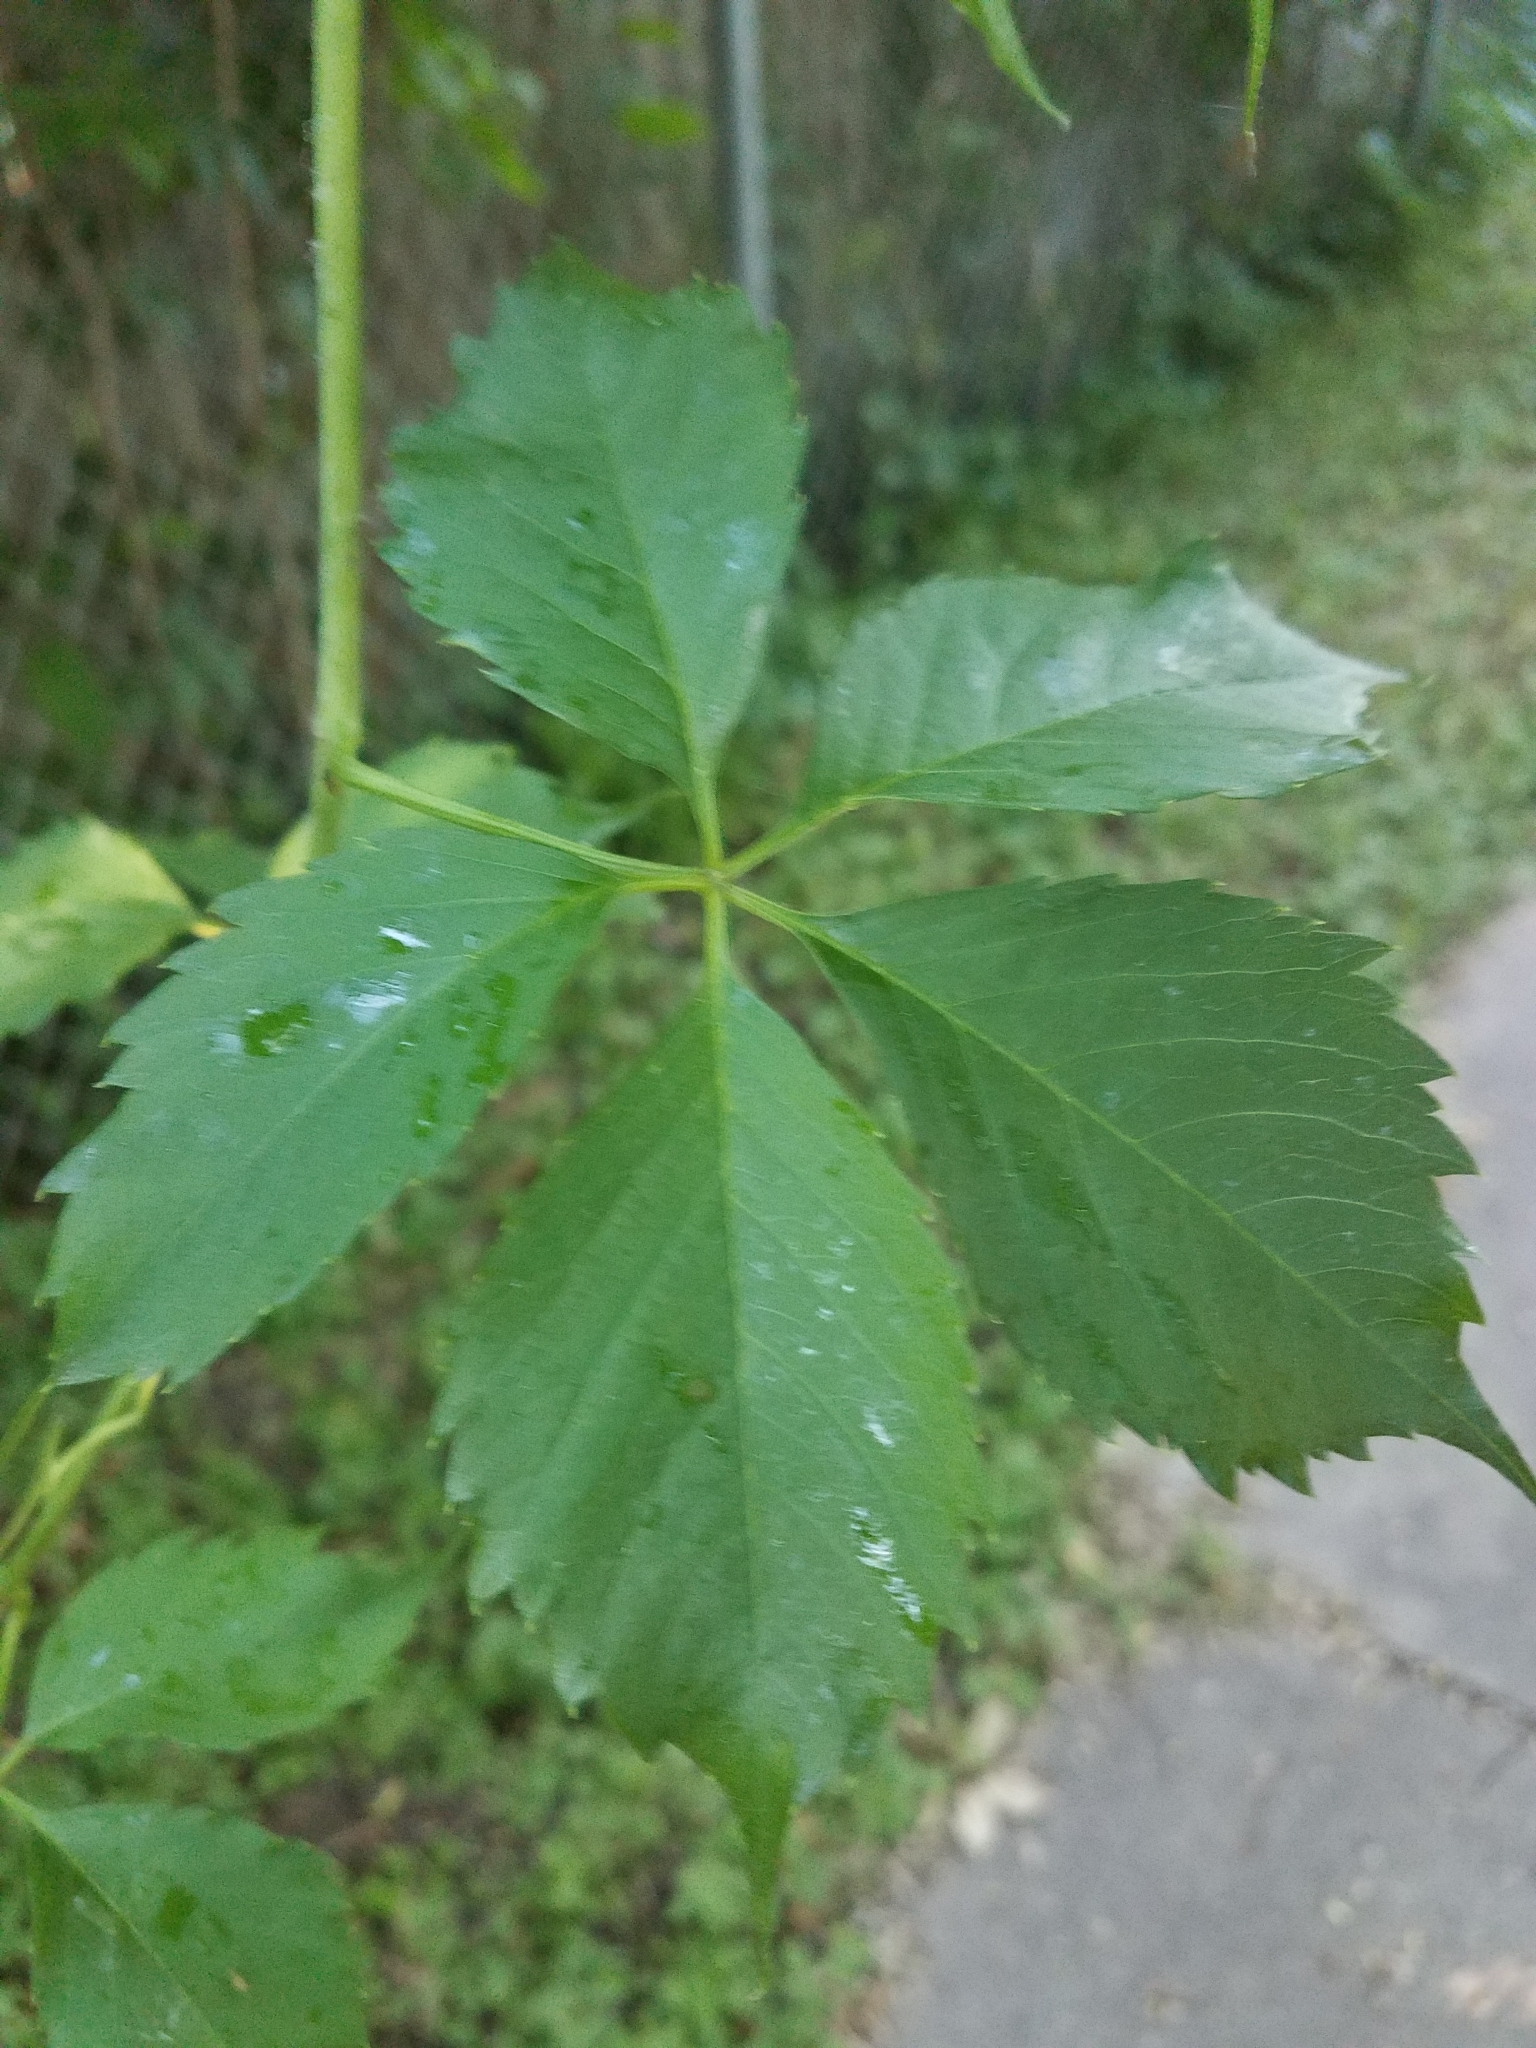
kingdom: Plantae
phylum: Tracheophyta
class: Magnoliopsida
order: Vitales
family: Vitaceae
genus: Parthenocissus
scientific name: Parthenocissus quinquefolia
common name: Virginia-creeper
